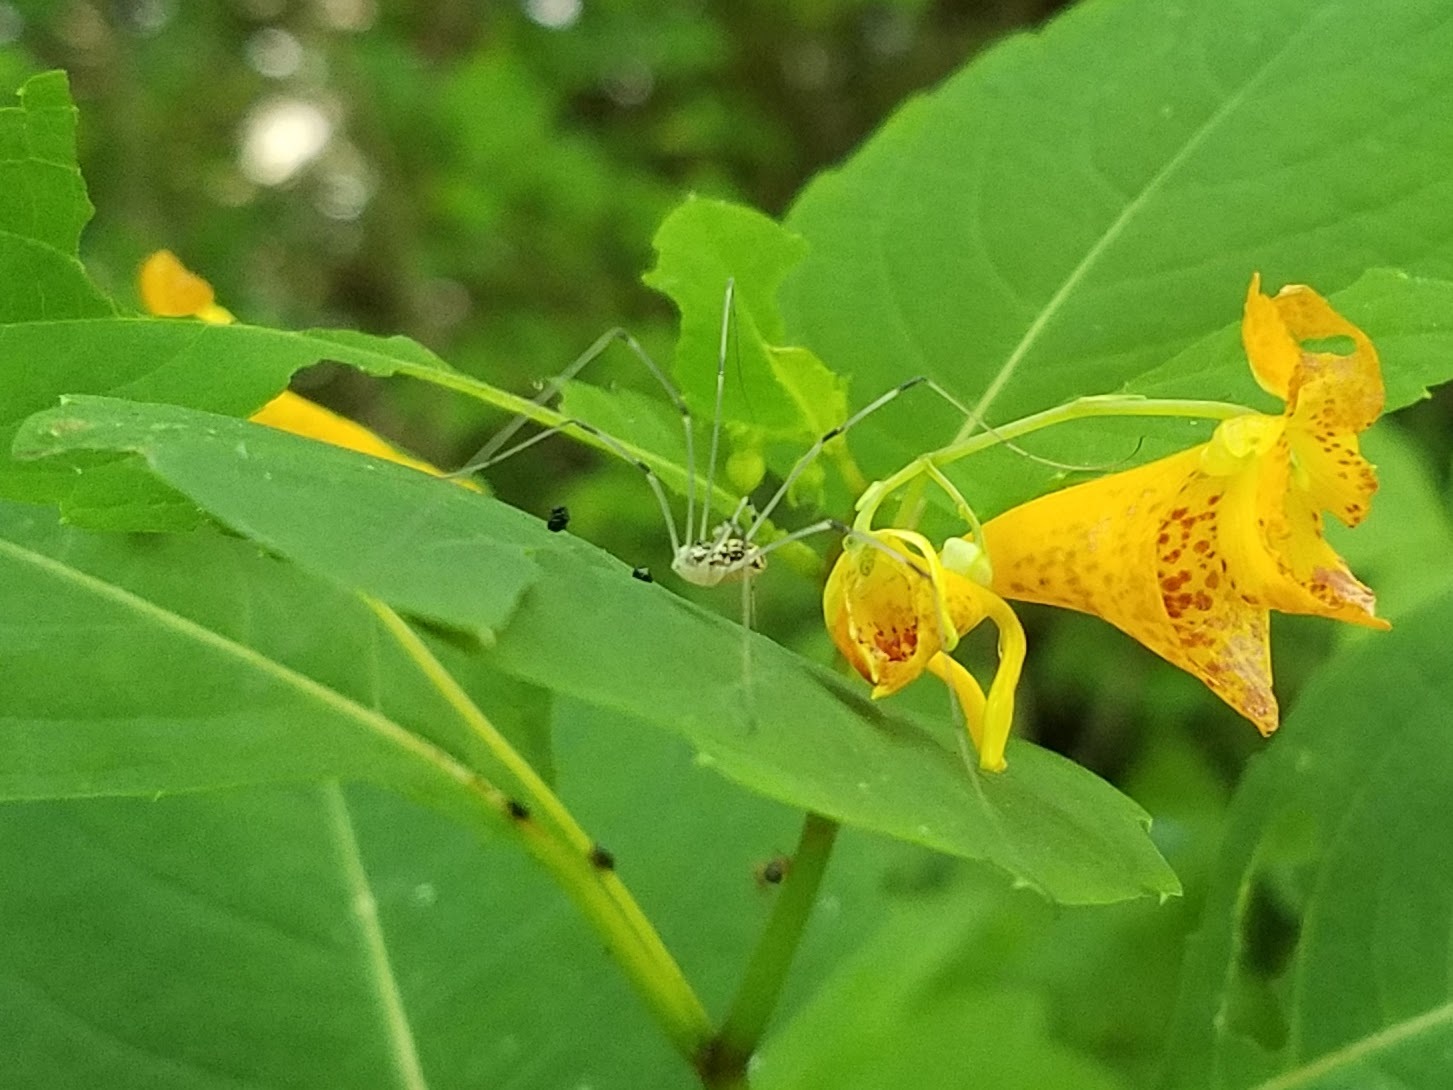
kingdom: Plantae
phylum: Tracheophyta
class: Magnoliopsida
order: Ericales
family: Balsaminaceae
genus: Impatiens
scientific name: Impatiens capensis
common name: Orange balsam
